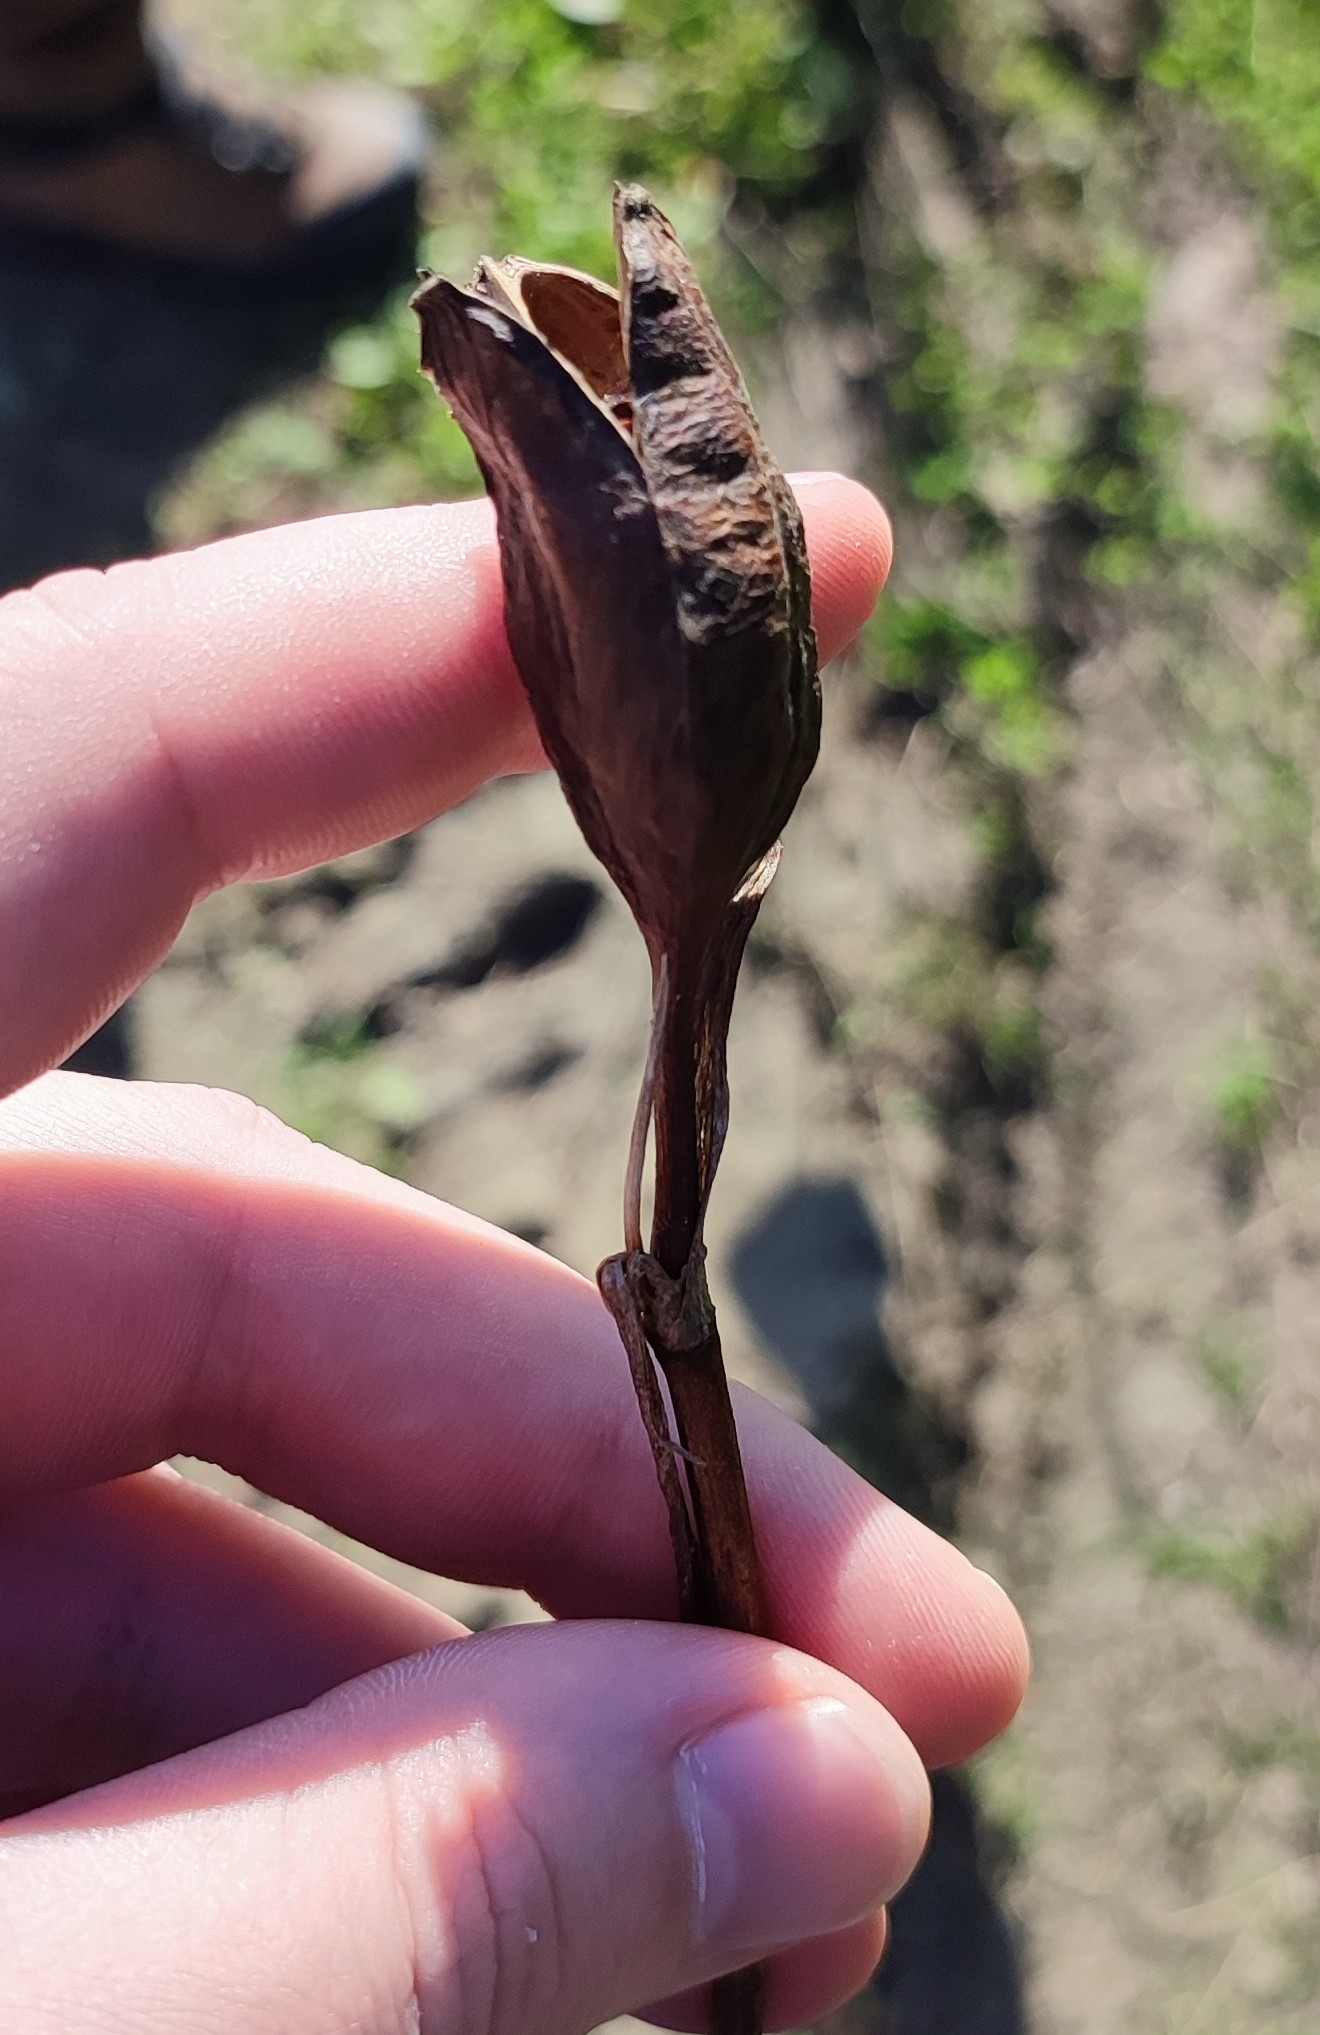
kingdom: Plantae
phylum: Tracheophyta
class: Liliopsida
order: Asparagales
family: Iridaceae
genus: Iris
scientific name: Iris sibirica
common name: Siberian iris
